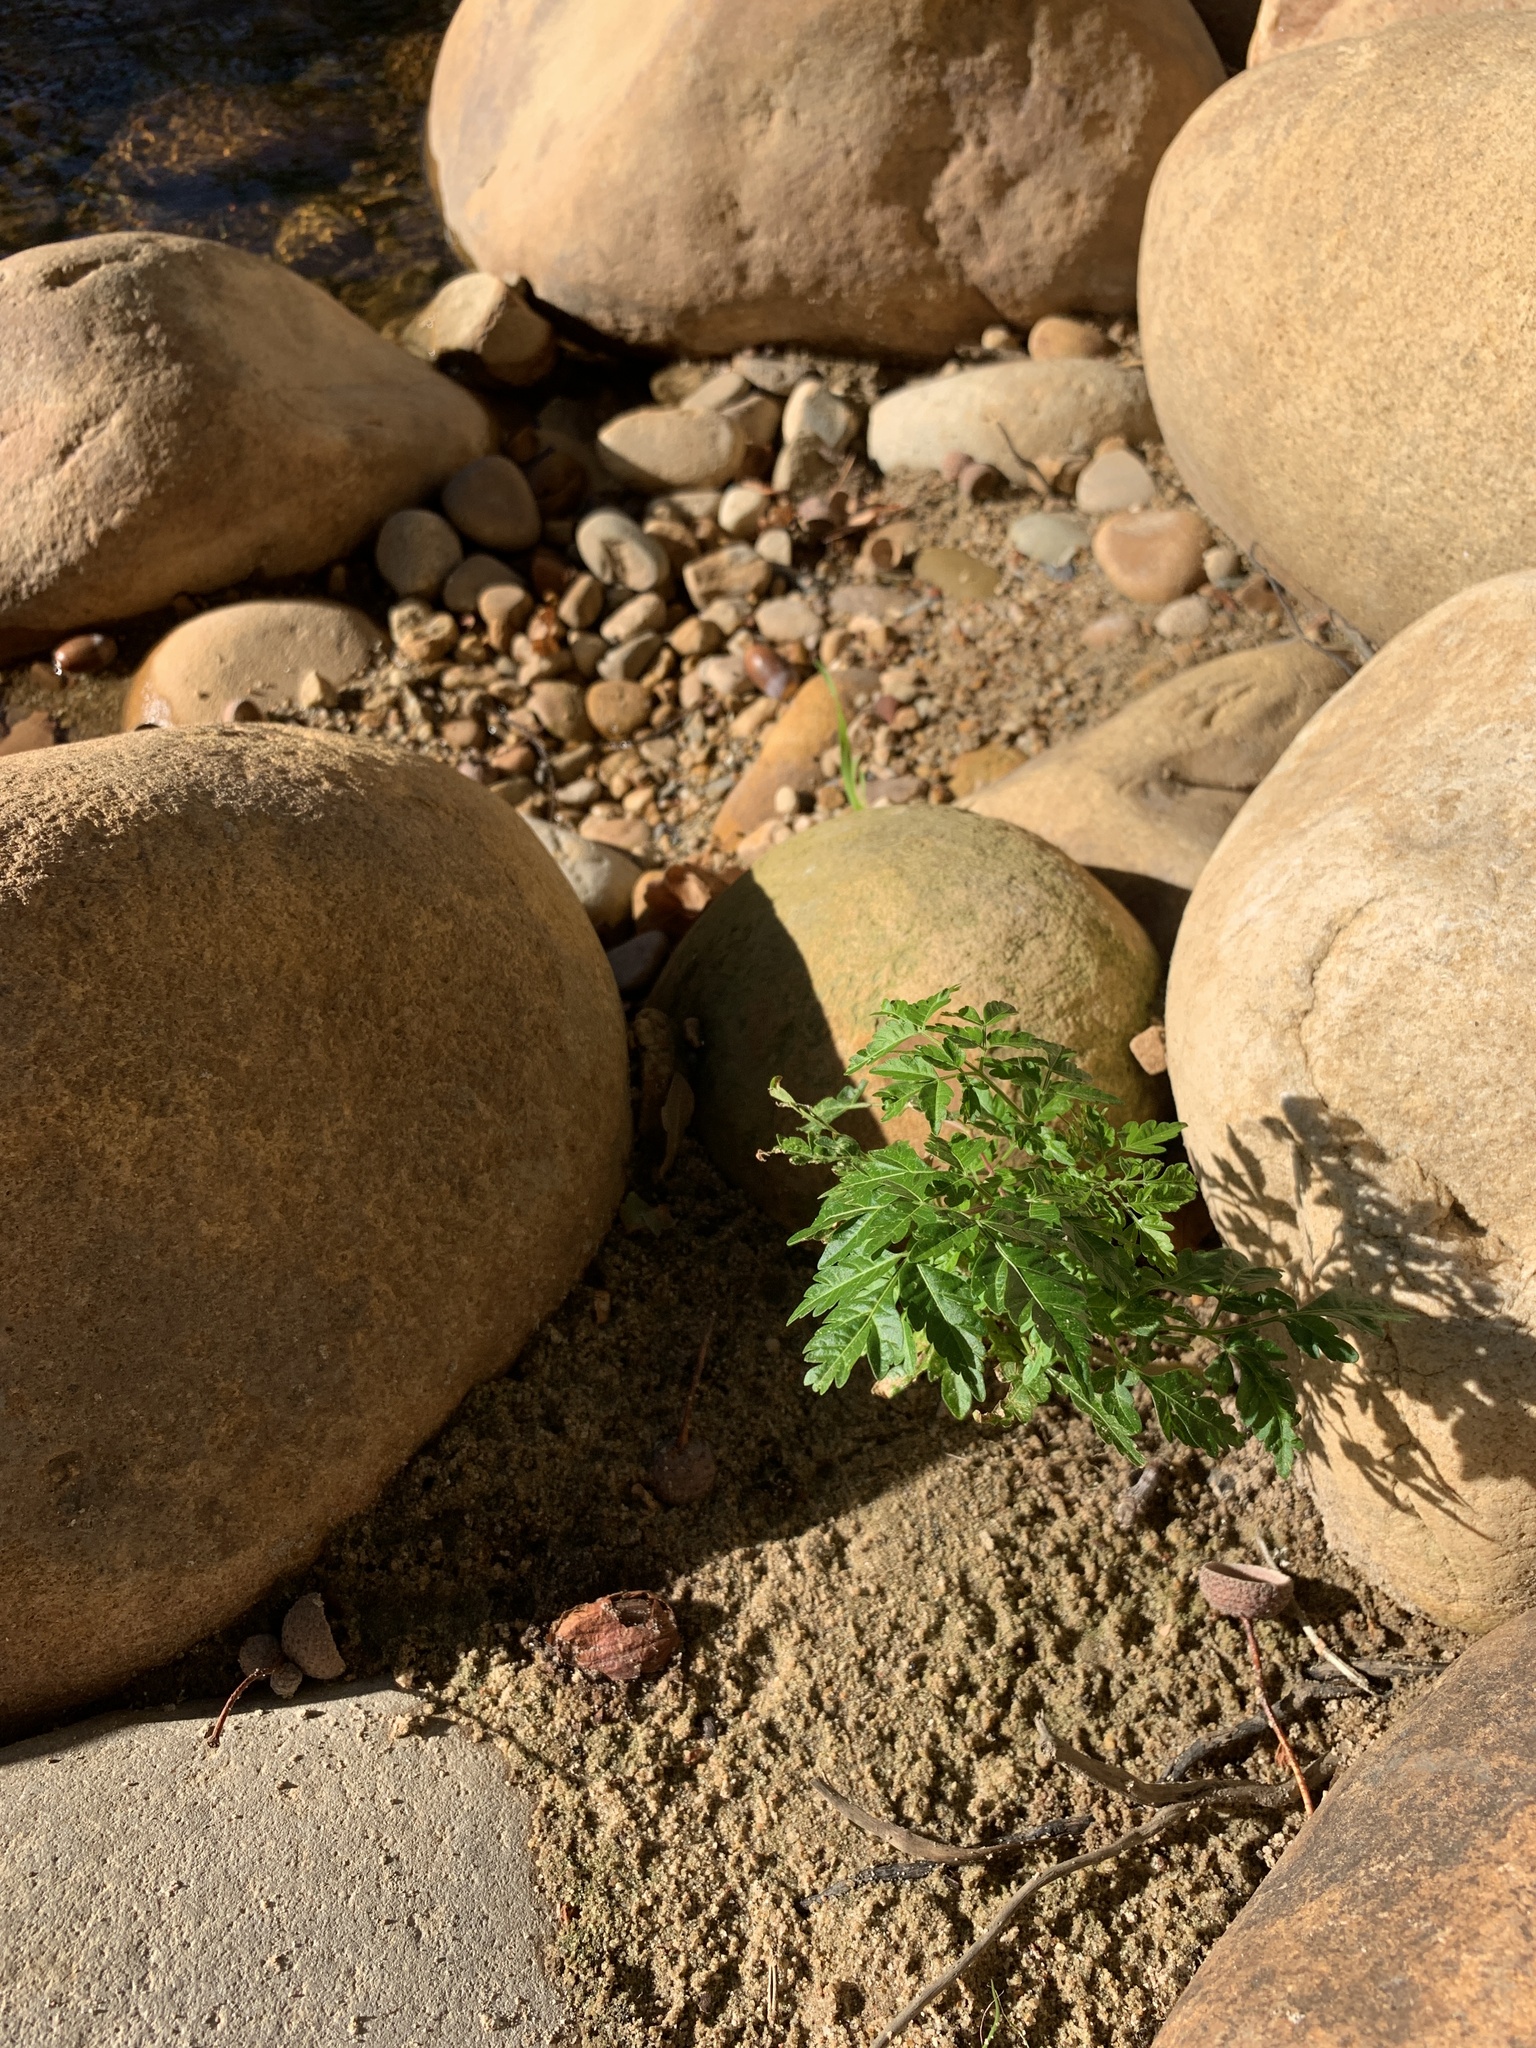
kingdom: Plantae
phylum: Tracheophyta
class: Magnoliopsida
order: Sapindales
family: Meliaceae
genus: Melia
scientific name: Melia azedarach
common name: Chinaberrytree
